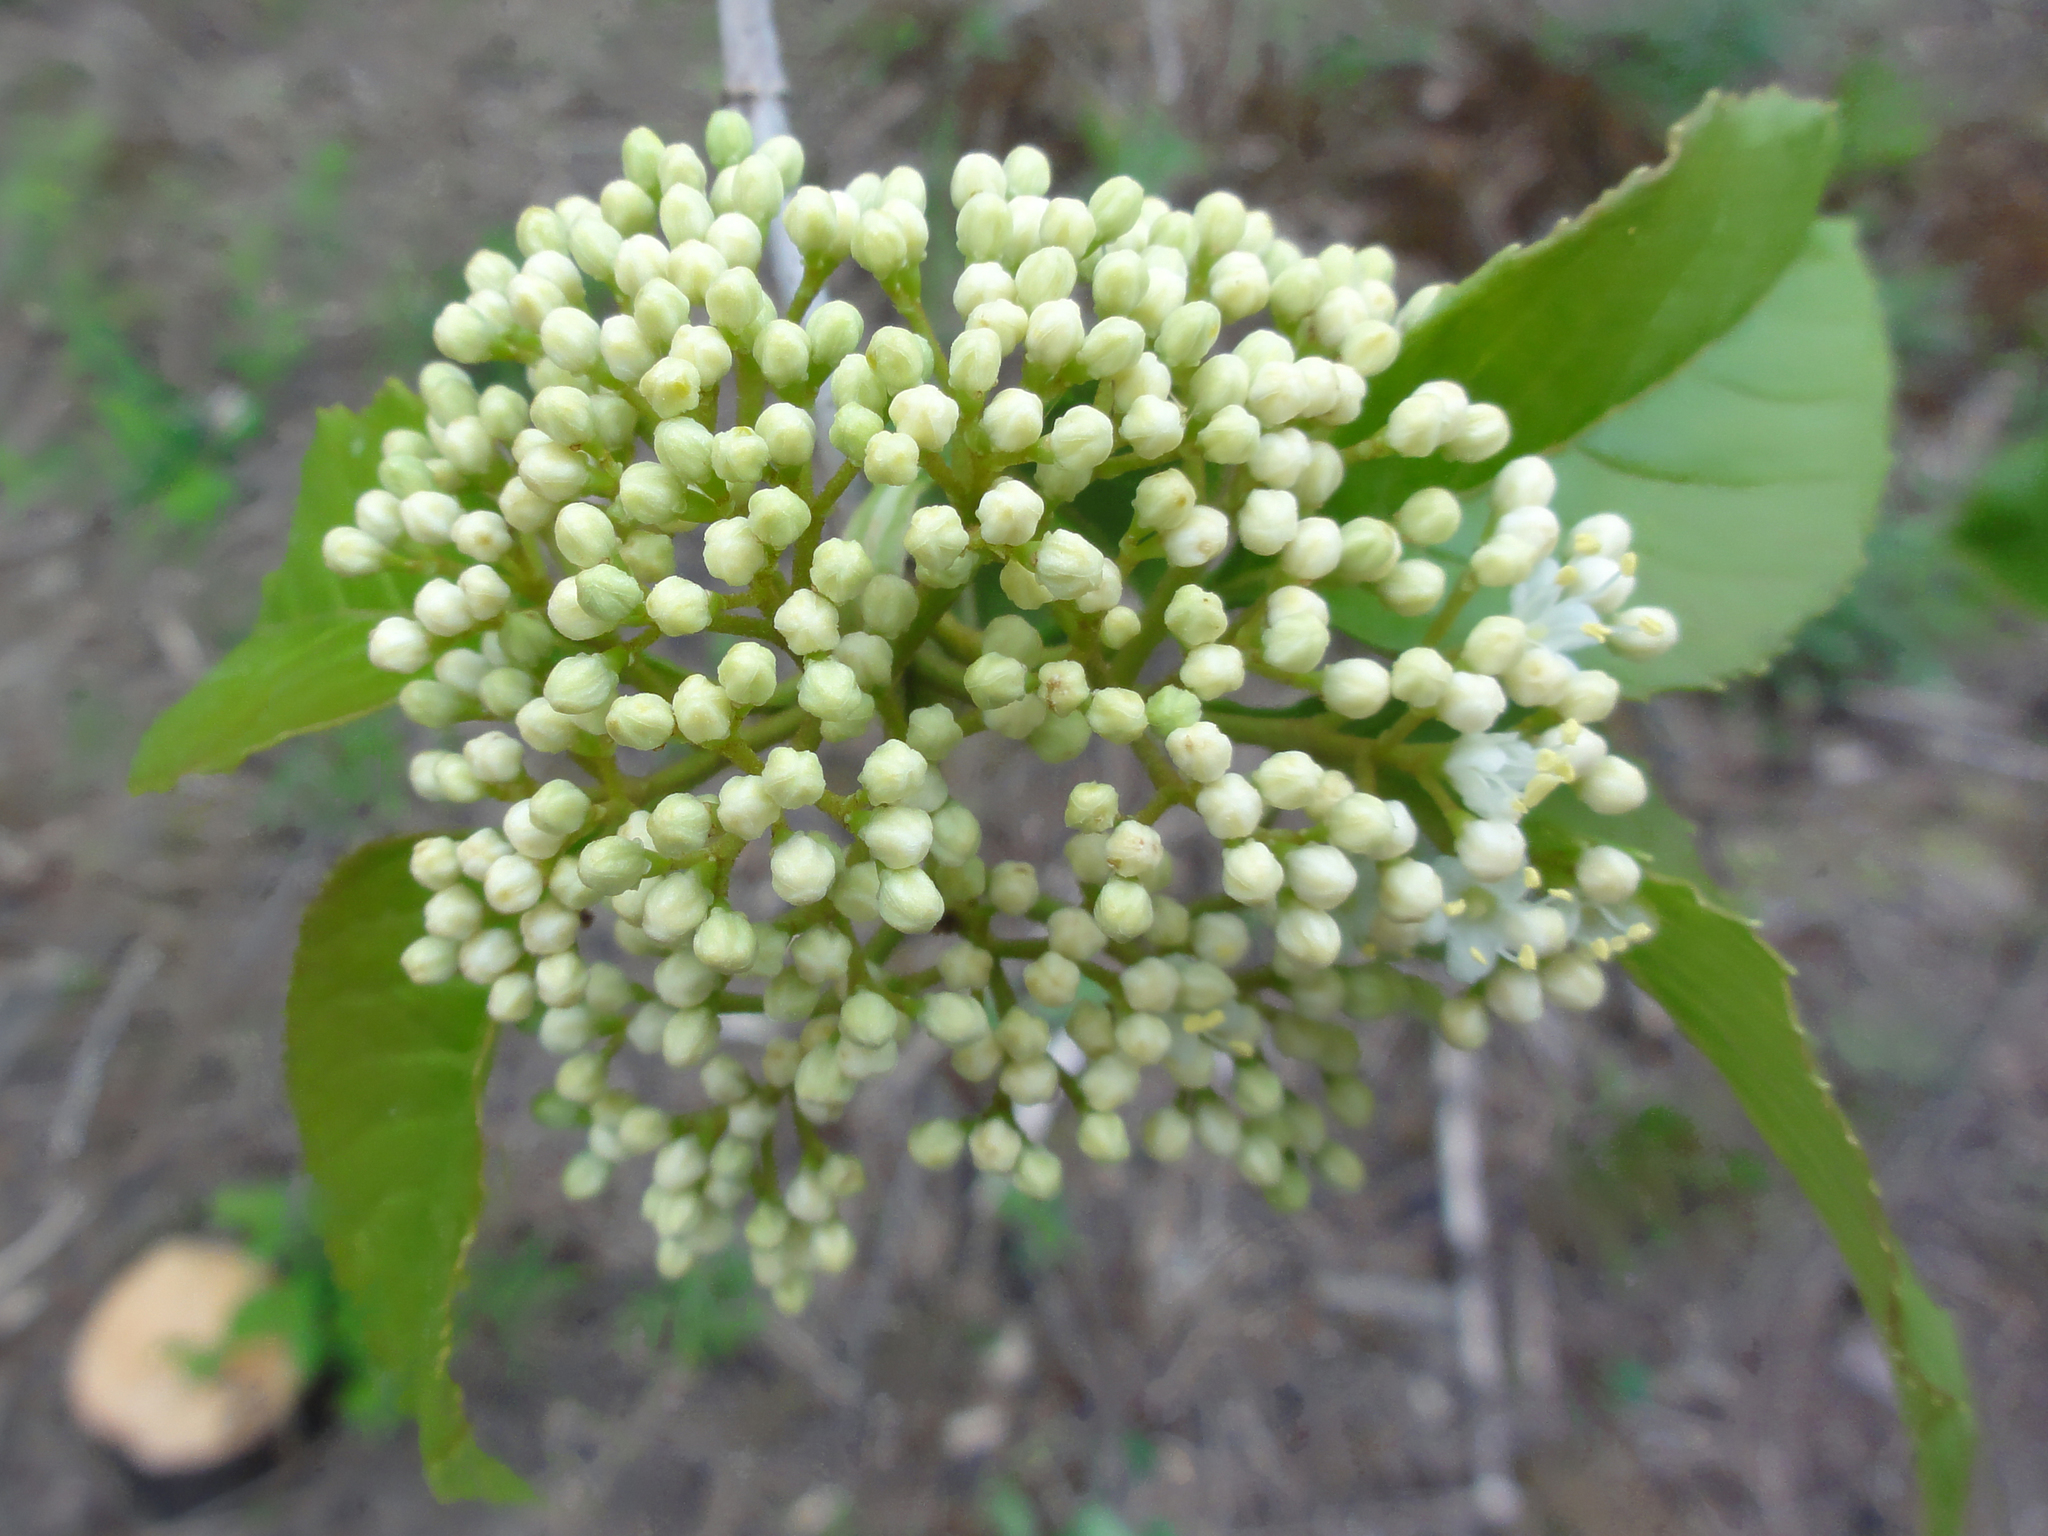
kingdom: Plantae
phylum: Tracheophyta
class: Magnoliopsida
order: Dipsacales
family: Viburnaceae
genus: Viburnum
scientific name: Viburnum lentago
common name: Black haw
